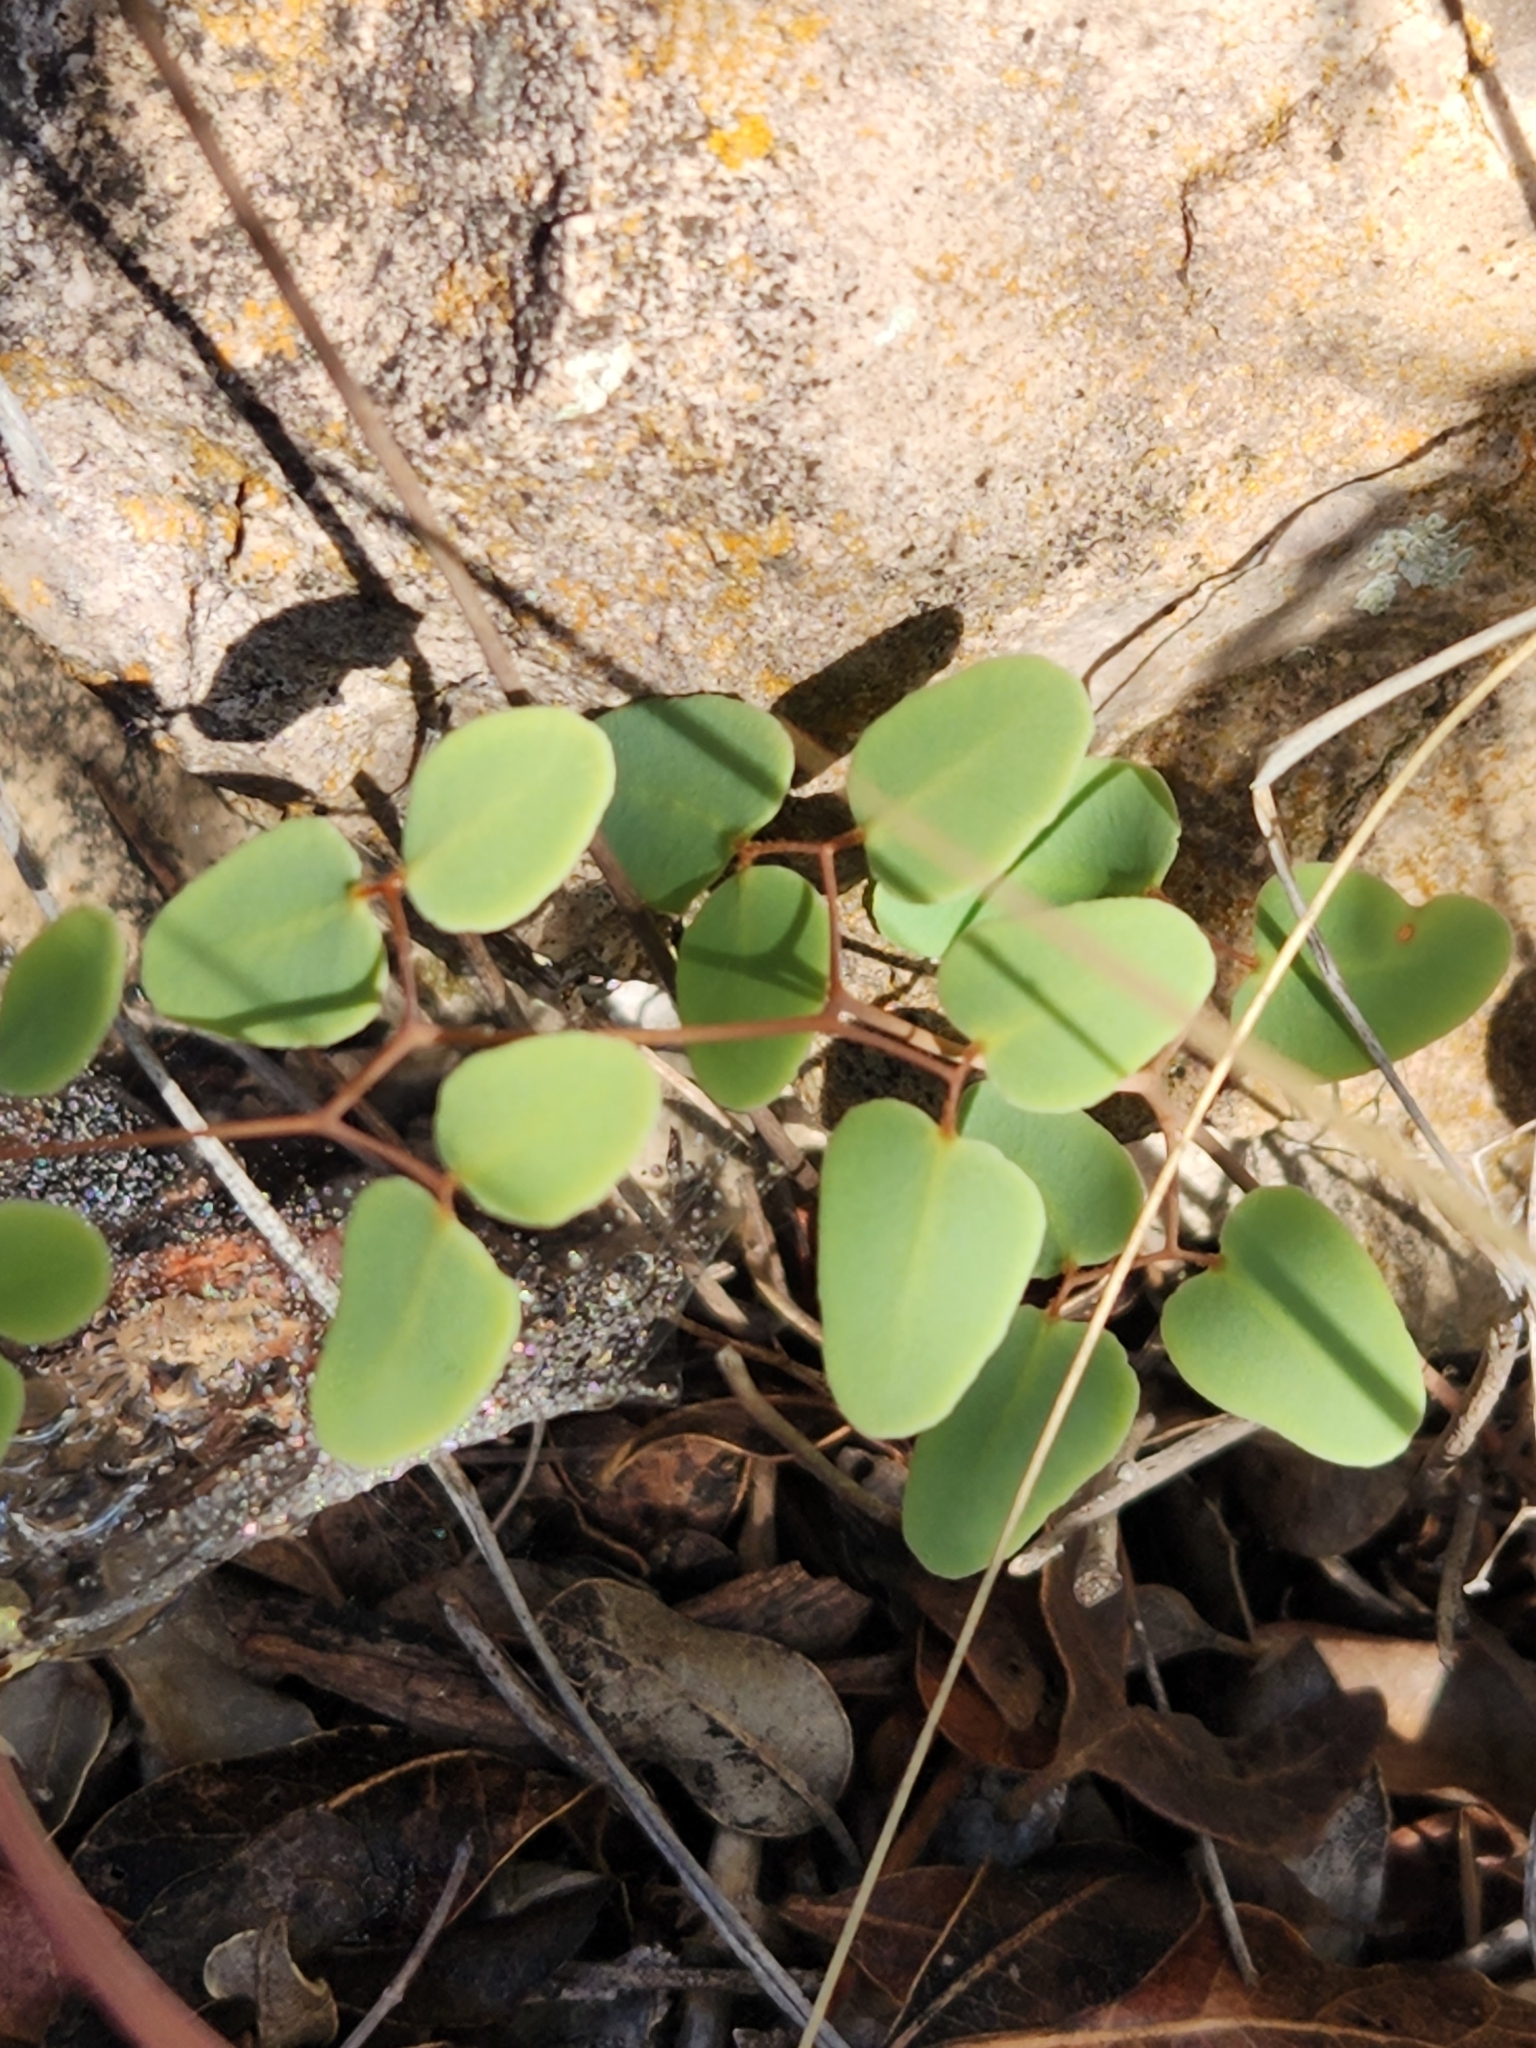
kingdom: Plantae
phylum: Tracheophyta
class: Polypodiopsida
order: Polypodiales
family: Pteridaceae
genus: Pellaea
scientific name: Pellaea ovata
